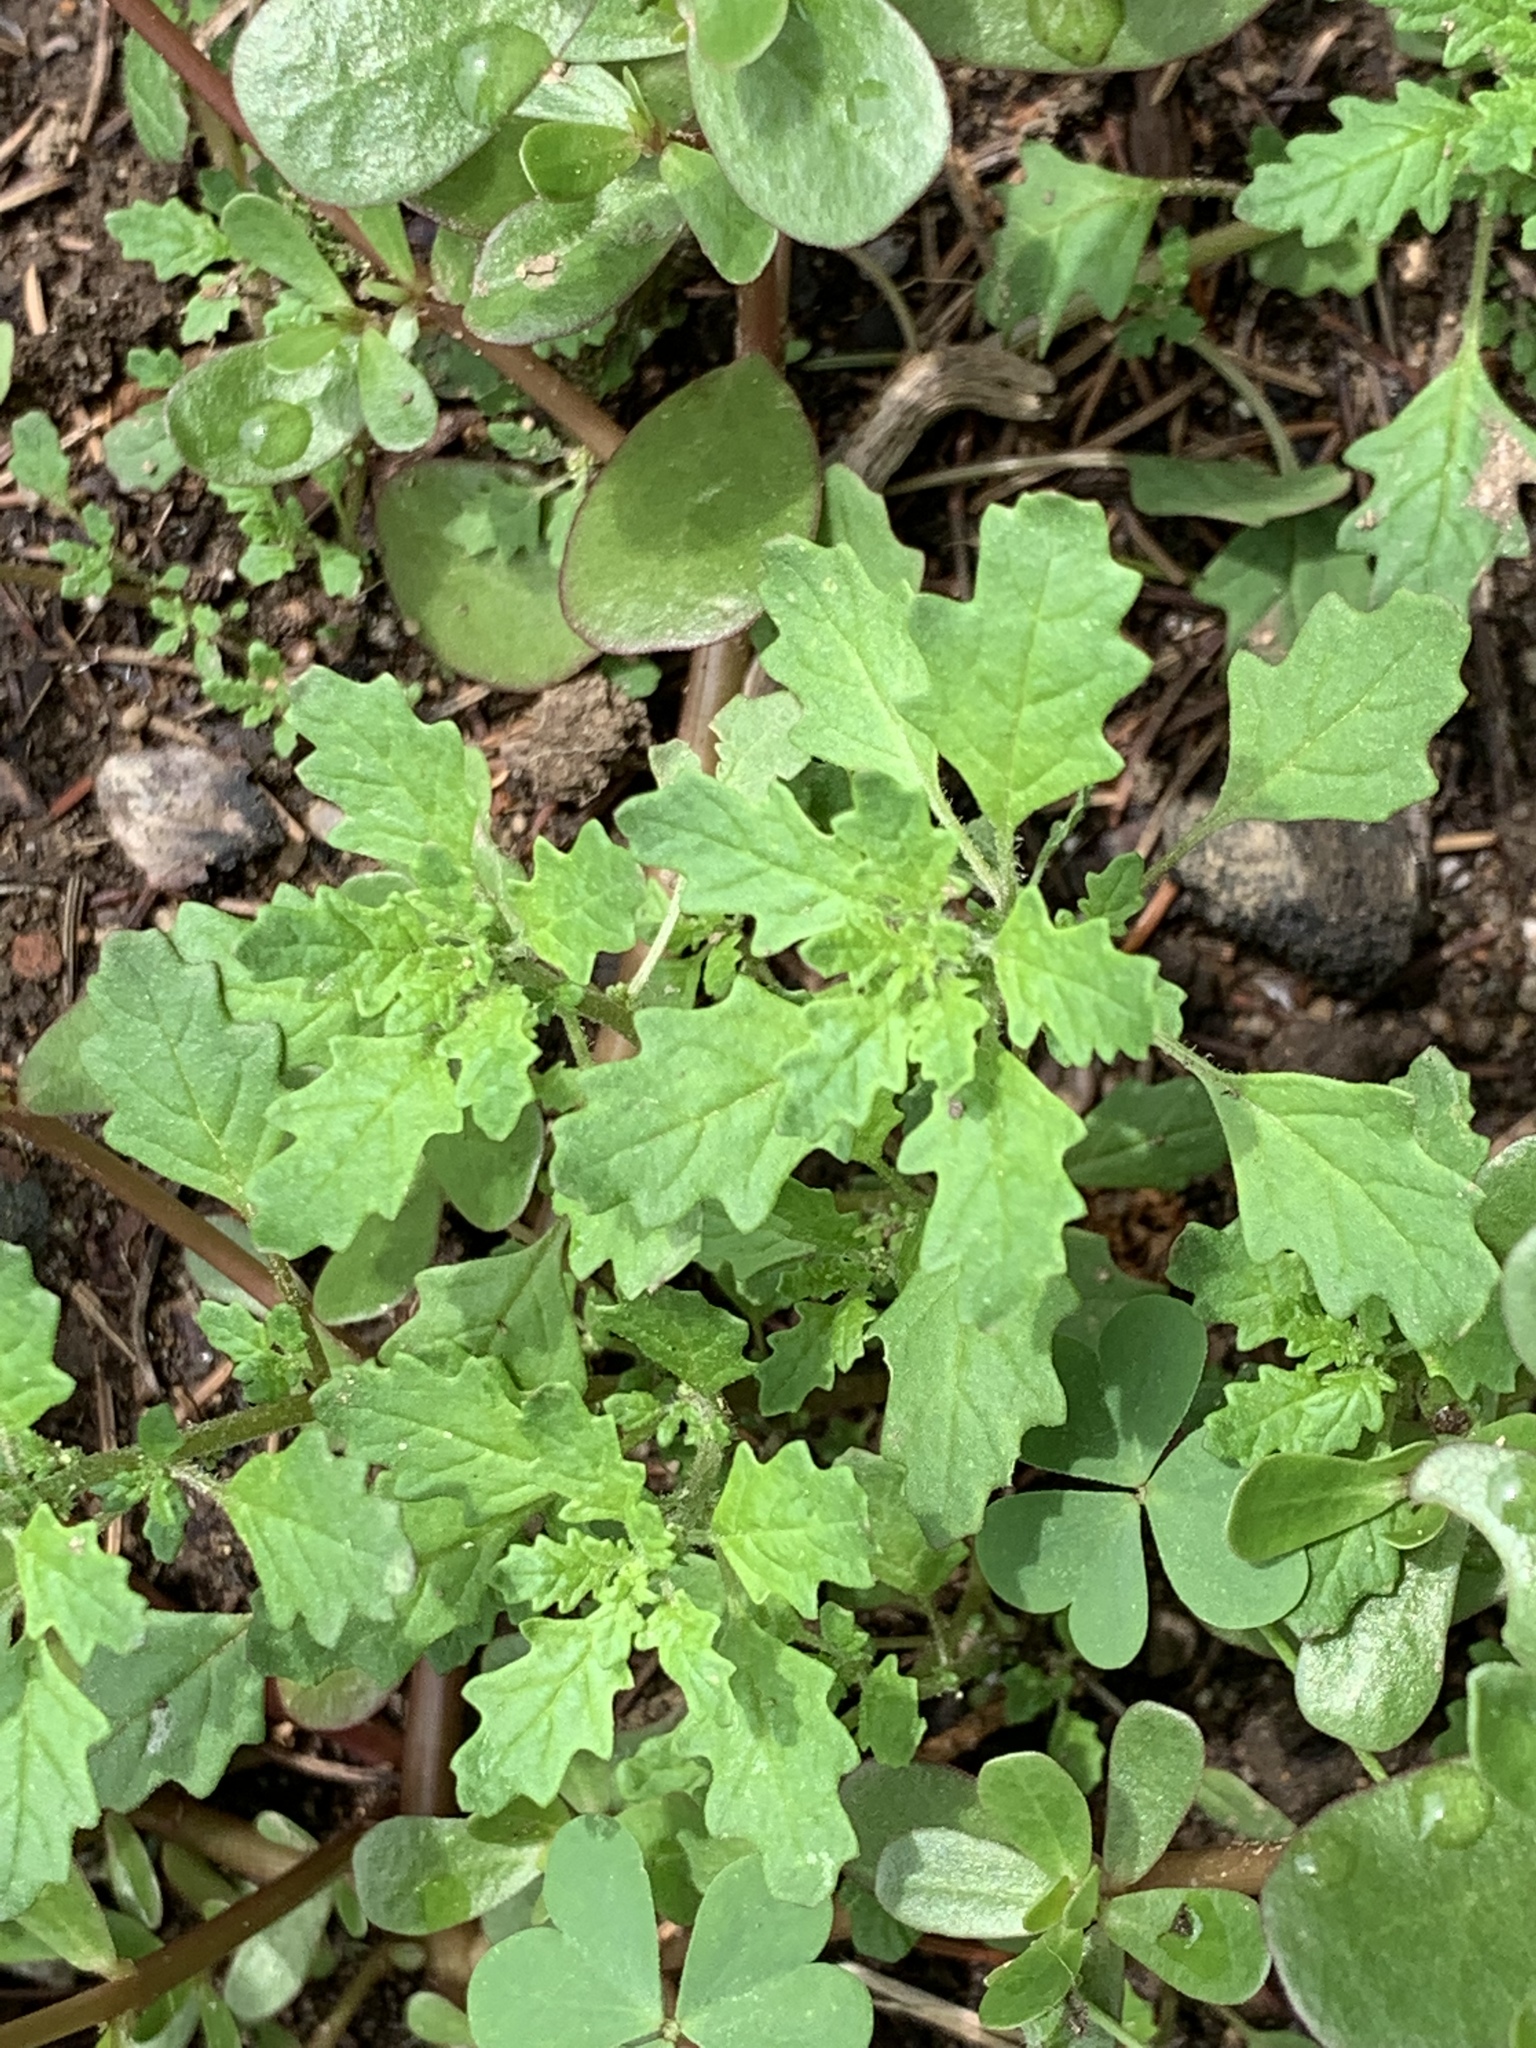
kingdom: Plantae
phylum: Tracheophyta
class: Magnoliopsida
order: Caryophyllales
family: Amaranthaceae
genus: Dysphania
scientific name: Dysphania pumilio
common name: Clammy goosefoot
